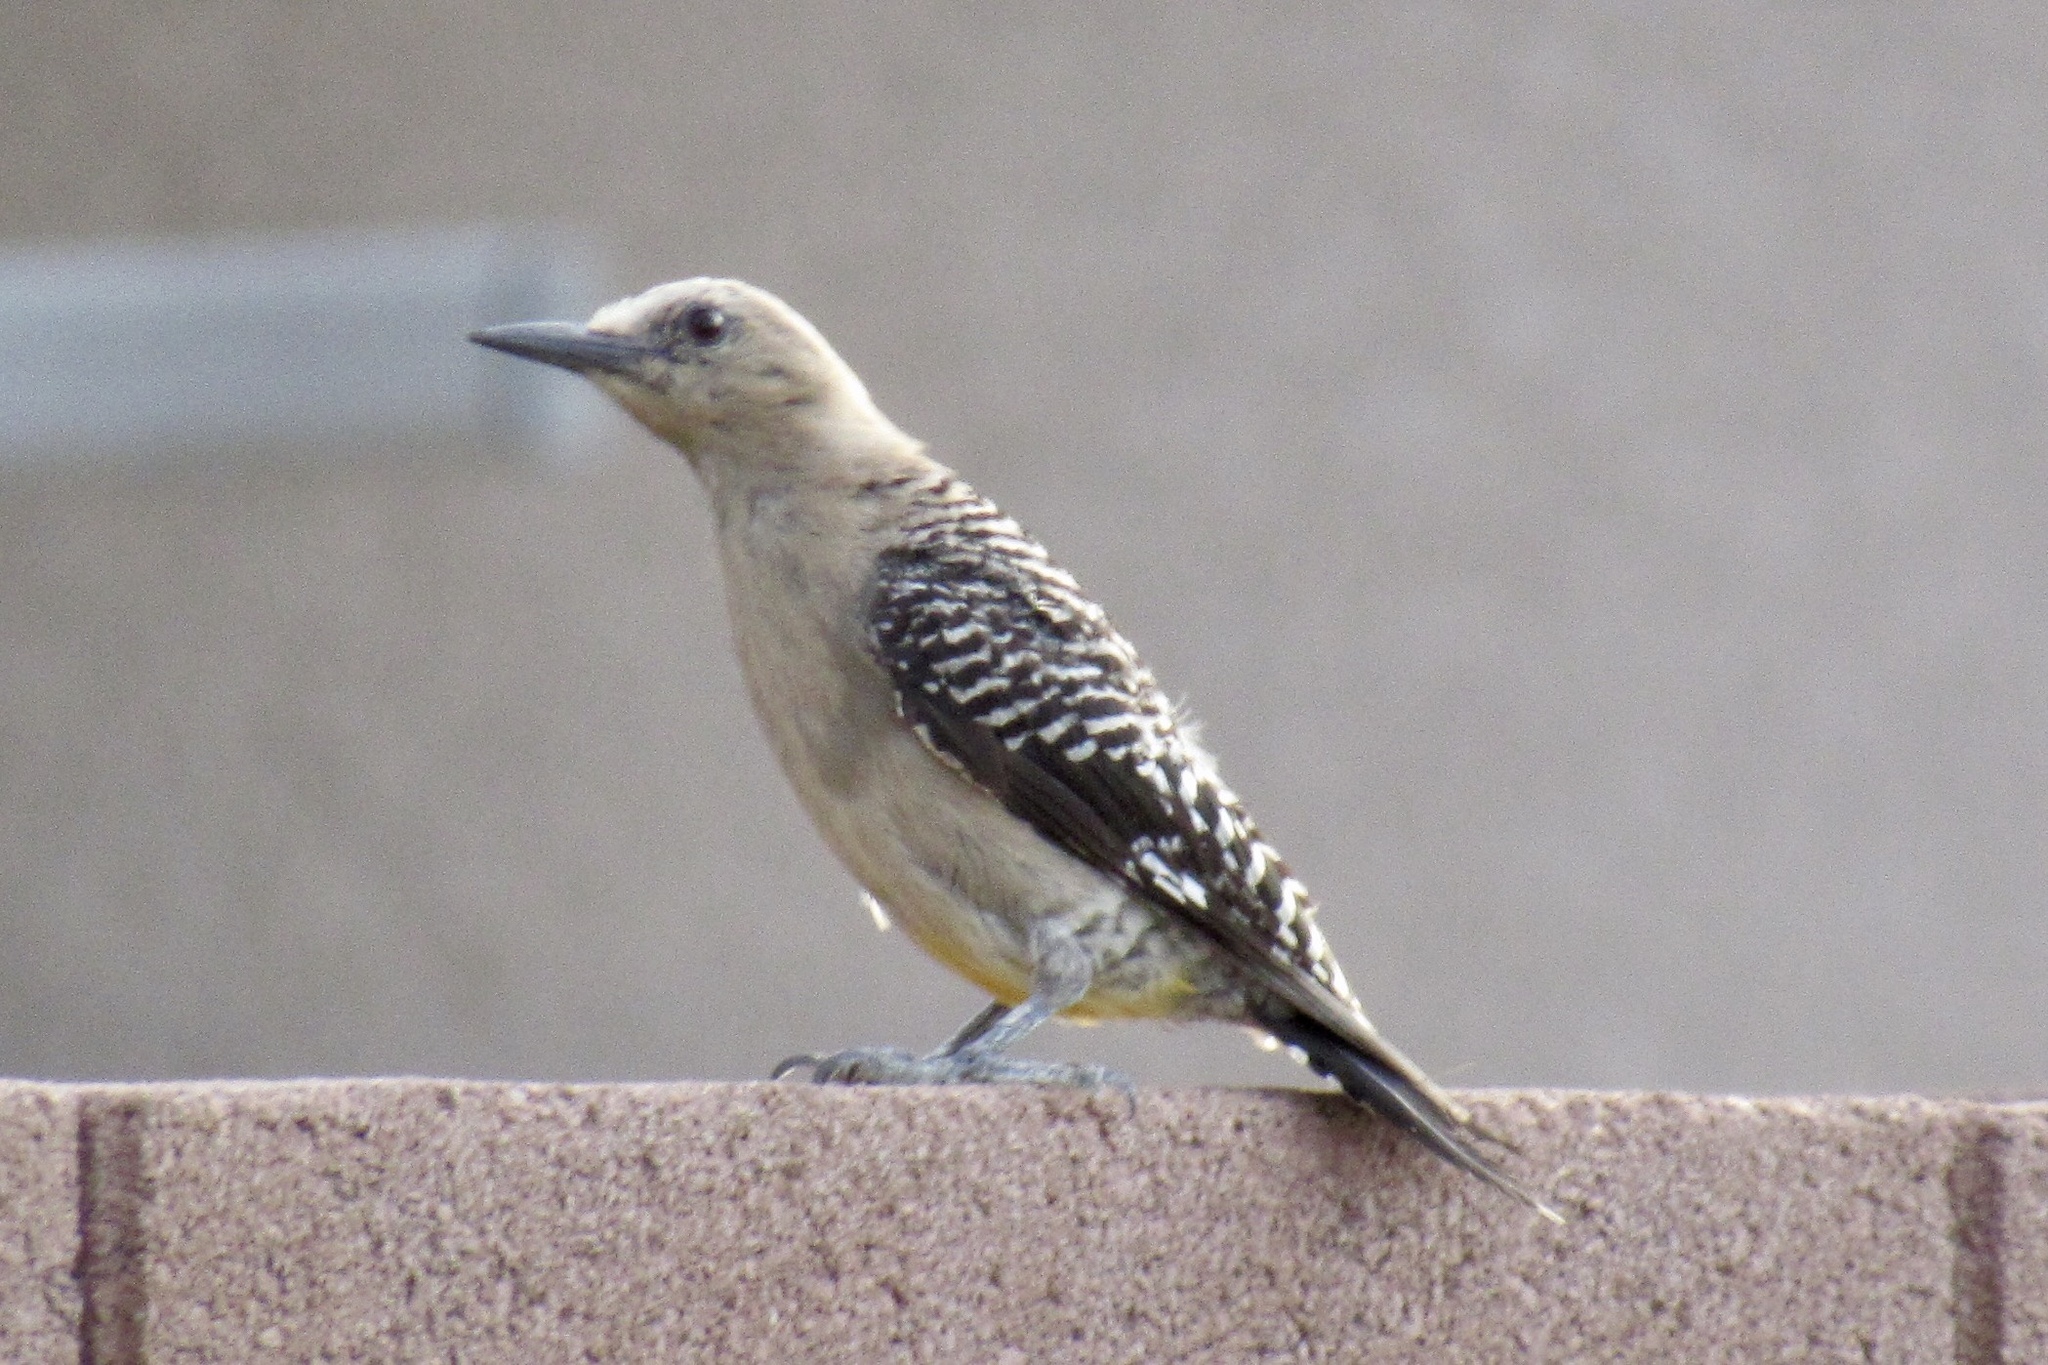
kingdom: Animalia
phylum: Chordata
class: Aves
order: Piciformes
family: Picidae
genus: Melanerpes
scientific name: Melanerpes uropygialis
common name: Gila woodpecker
